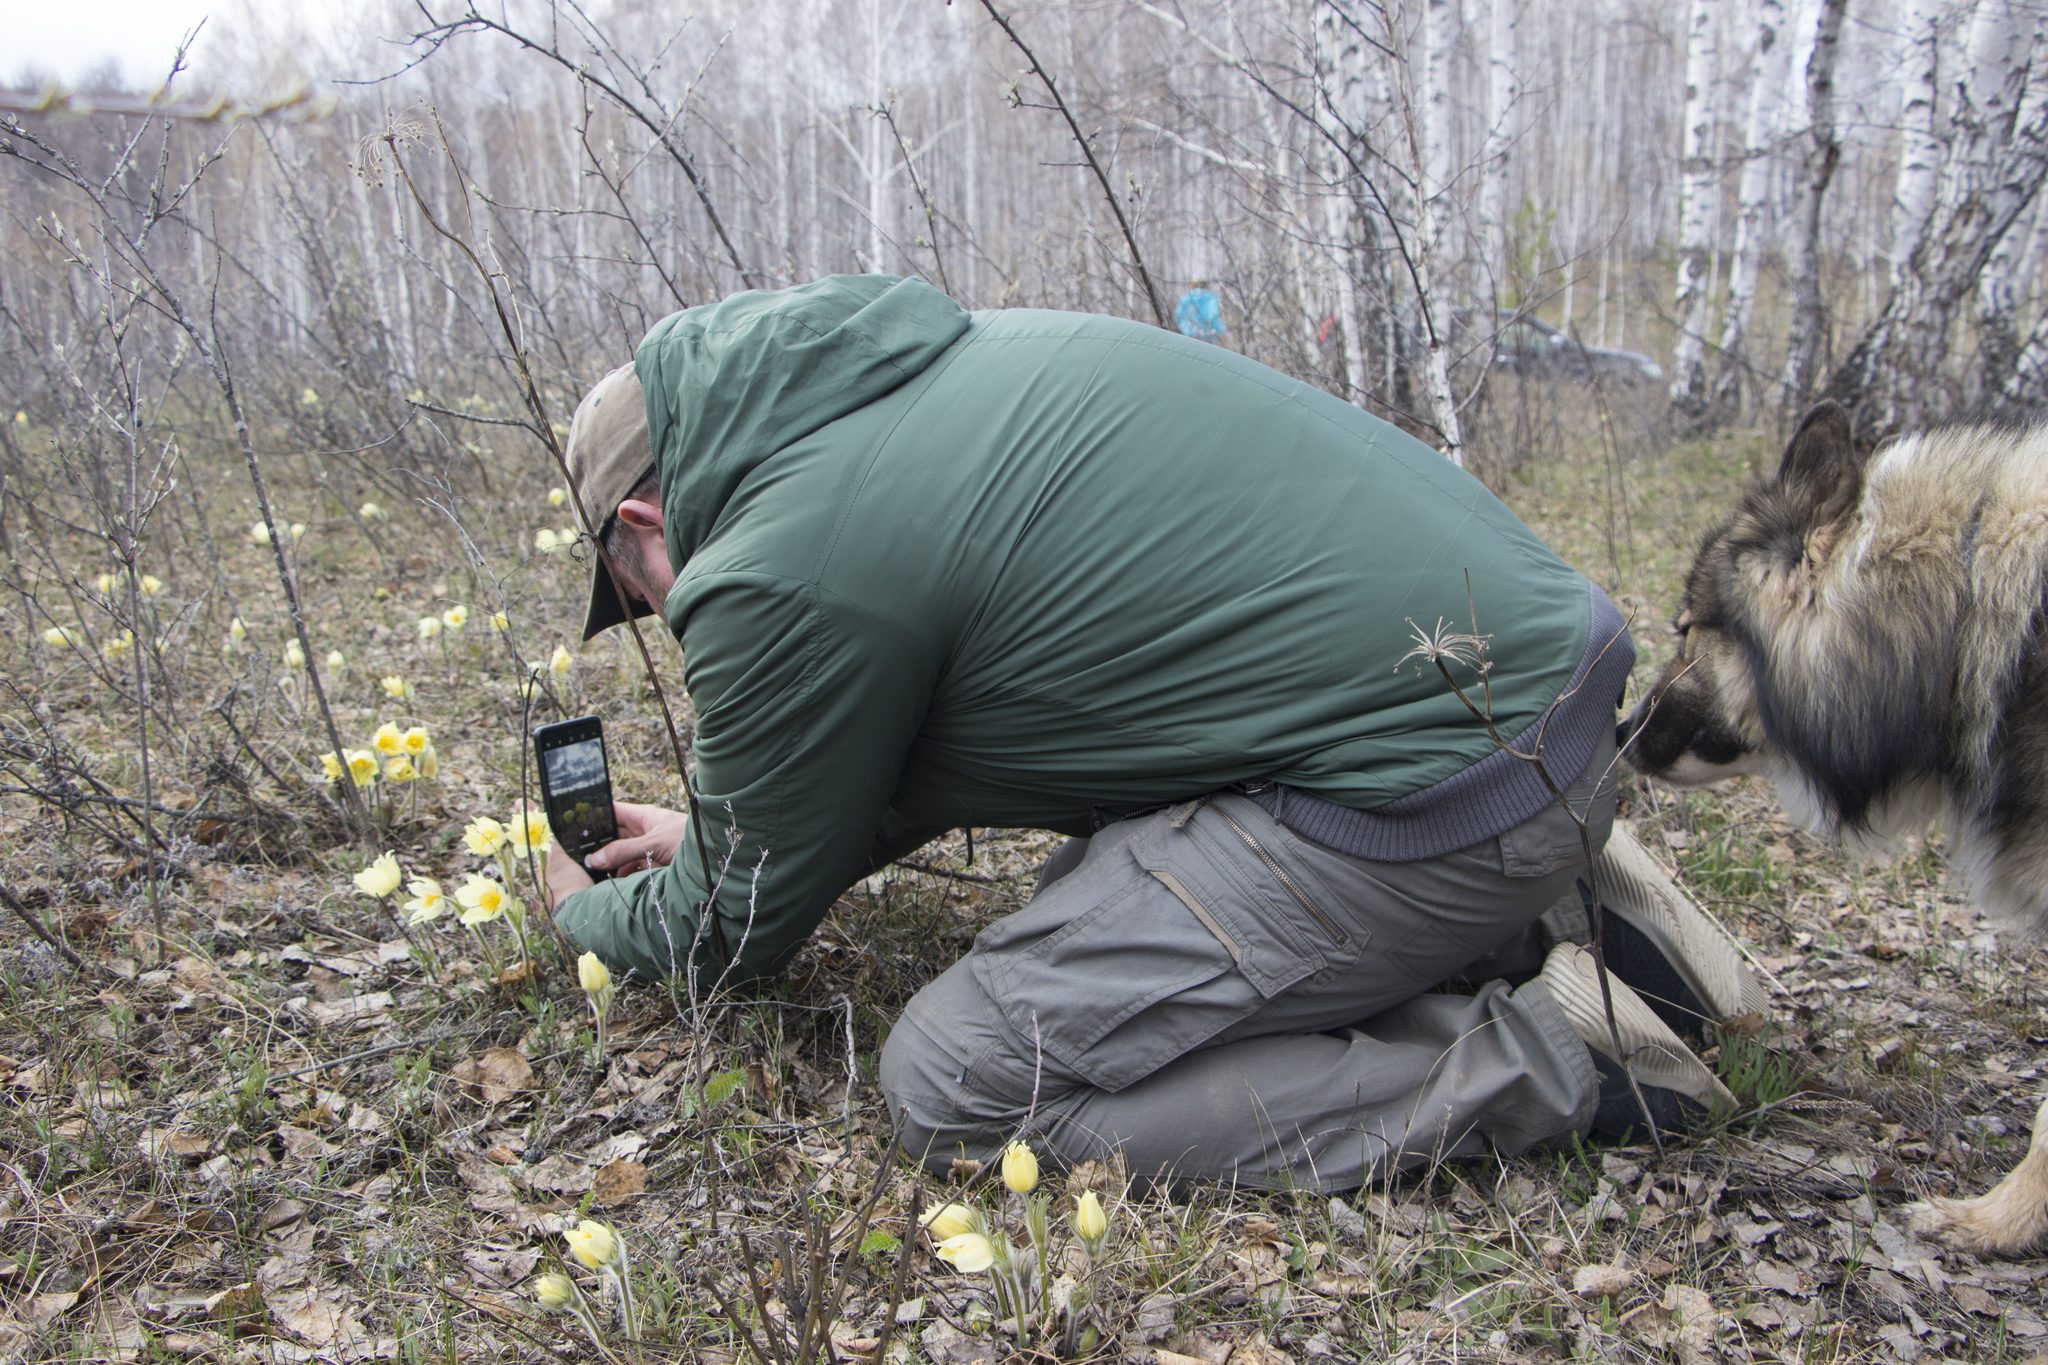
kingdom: Plantae
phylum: Tracheophyta
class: Magnoliopsida
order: Ranunculales
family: Ranunculaceae
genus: Pulsatilla
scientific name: Pulsatilla patens
